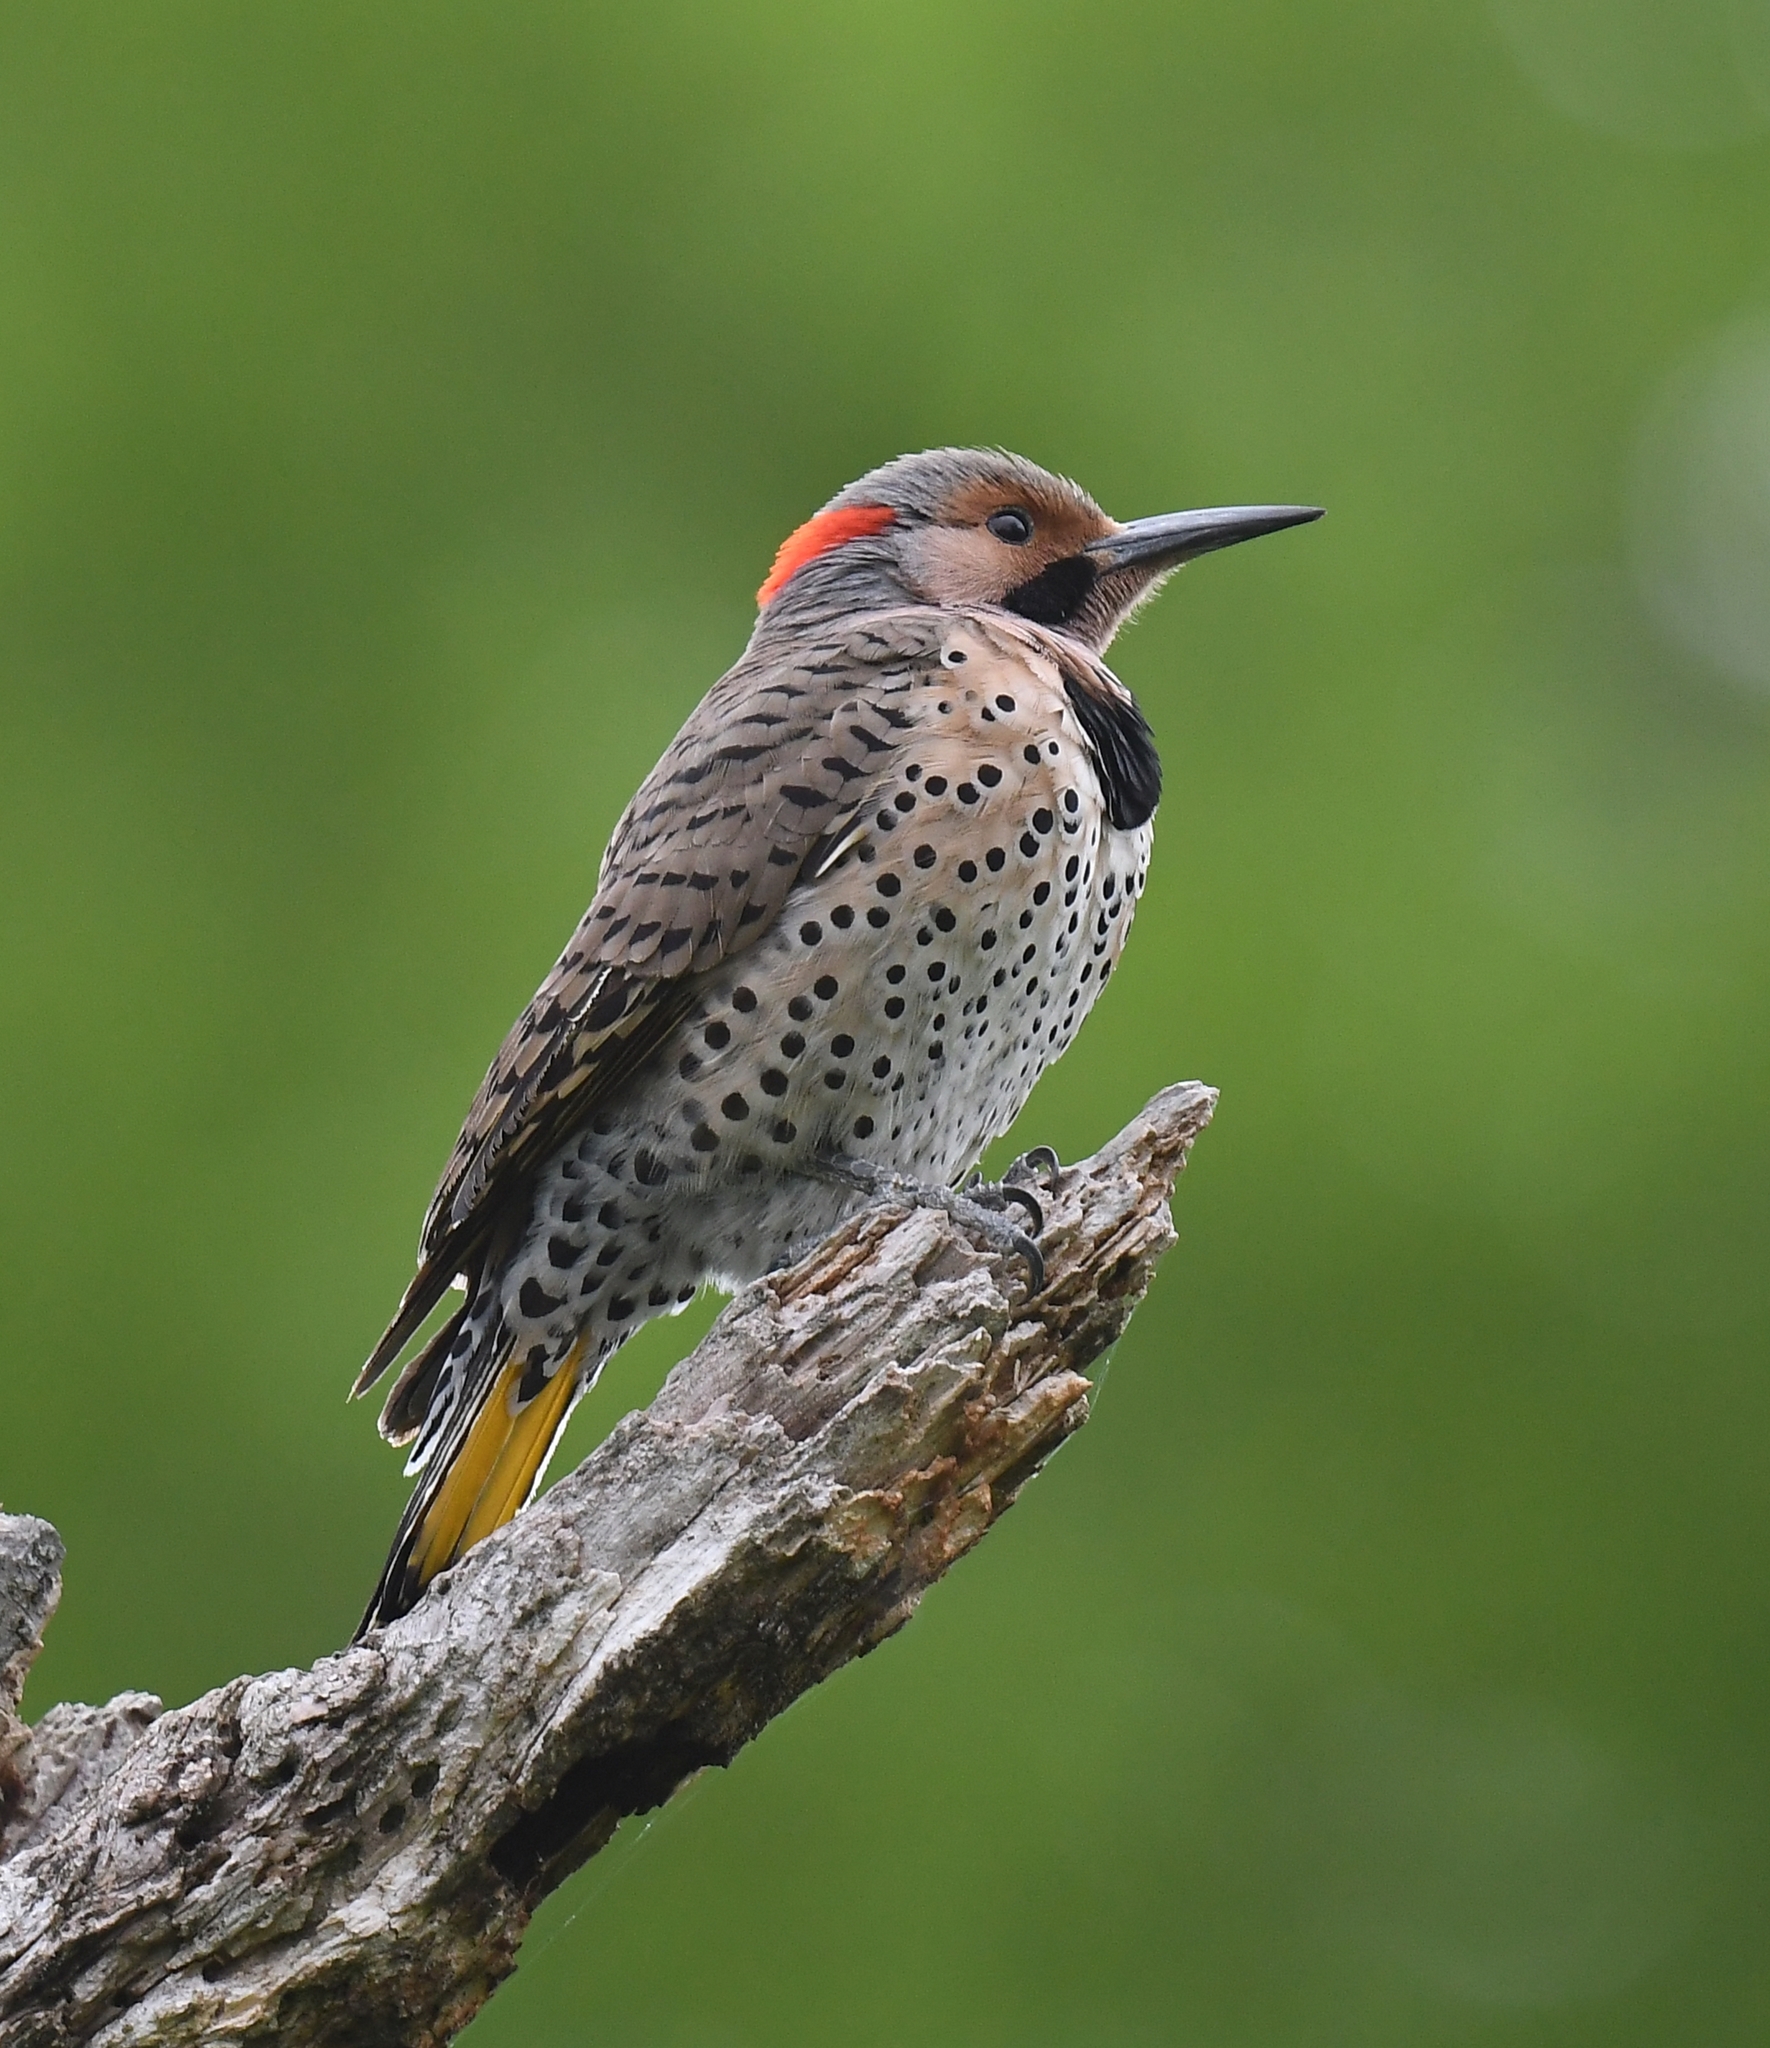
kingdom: Animalia
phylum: Chordata
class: Aves
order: Piciformes
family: Picidae
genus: Colaptes
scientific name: Colaptes auratus
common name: Northern flicker
